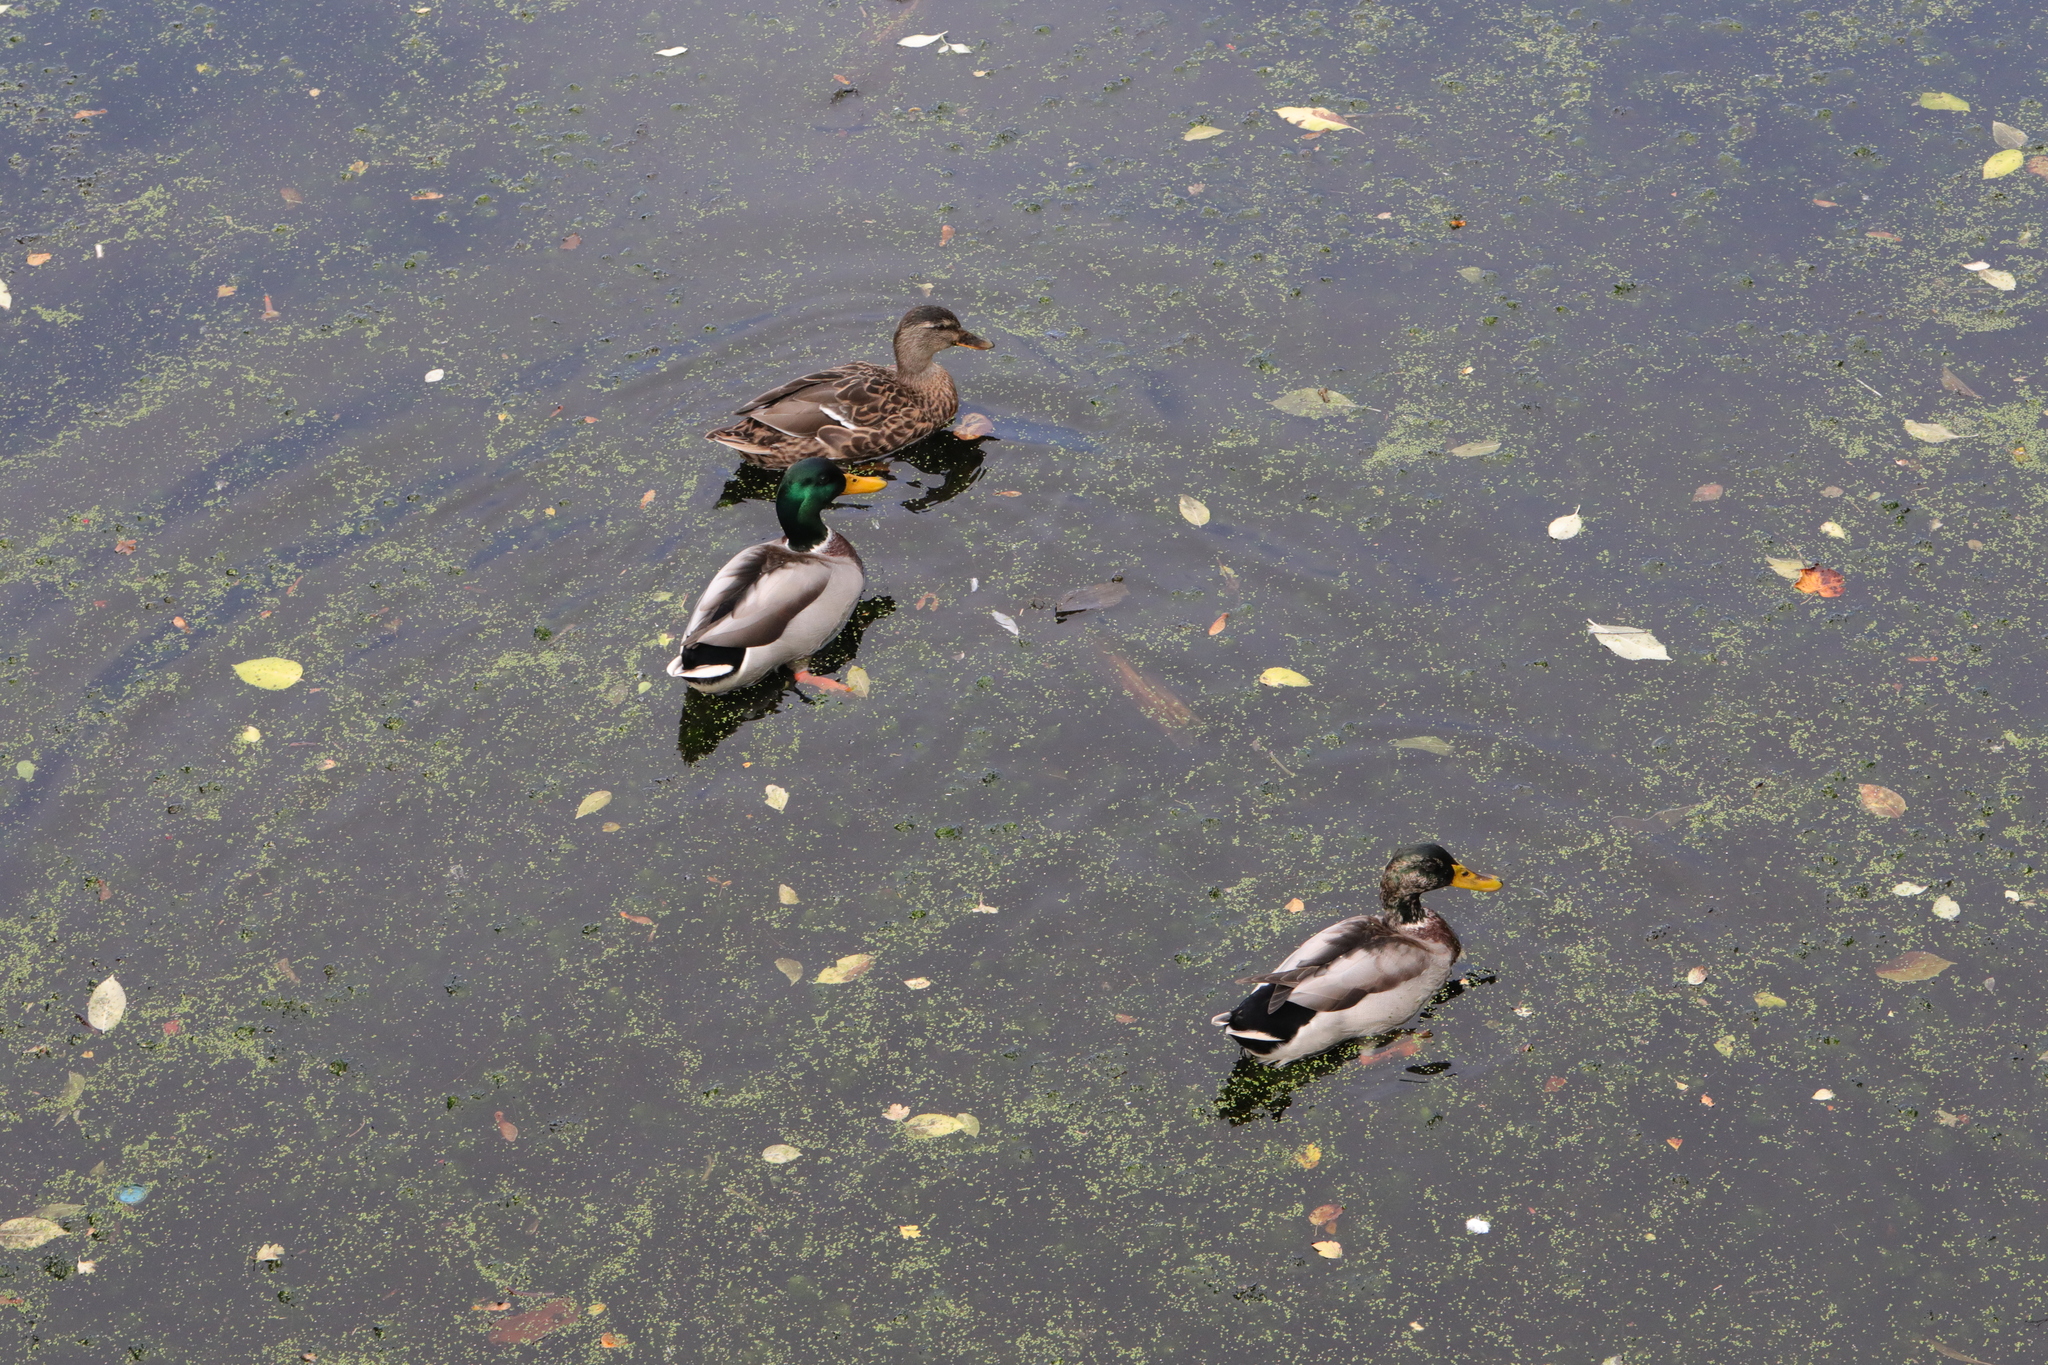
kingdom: Animalia
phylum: Chordata
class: Aves
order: Anseriformes
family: Anatidae
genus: Anas
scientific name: Anas platyrhynchos
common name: Mallard
